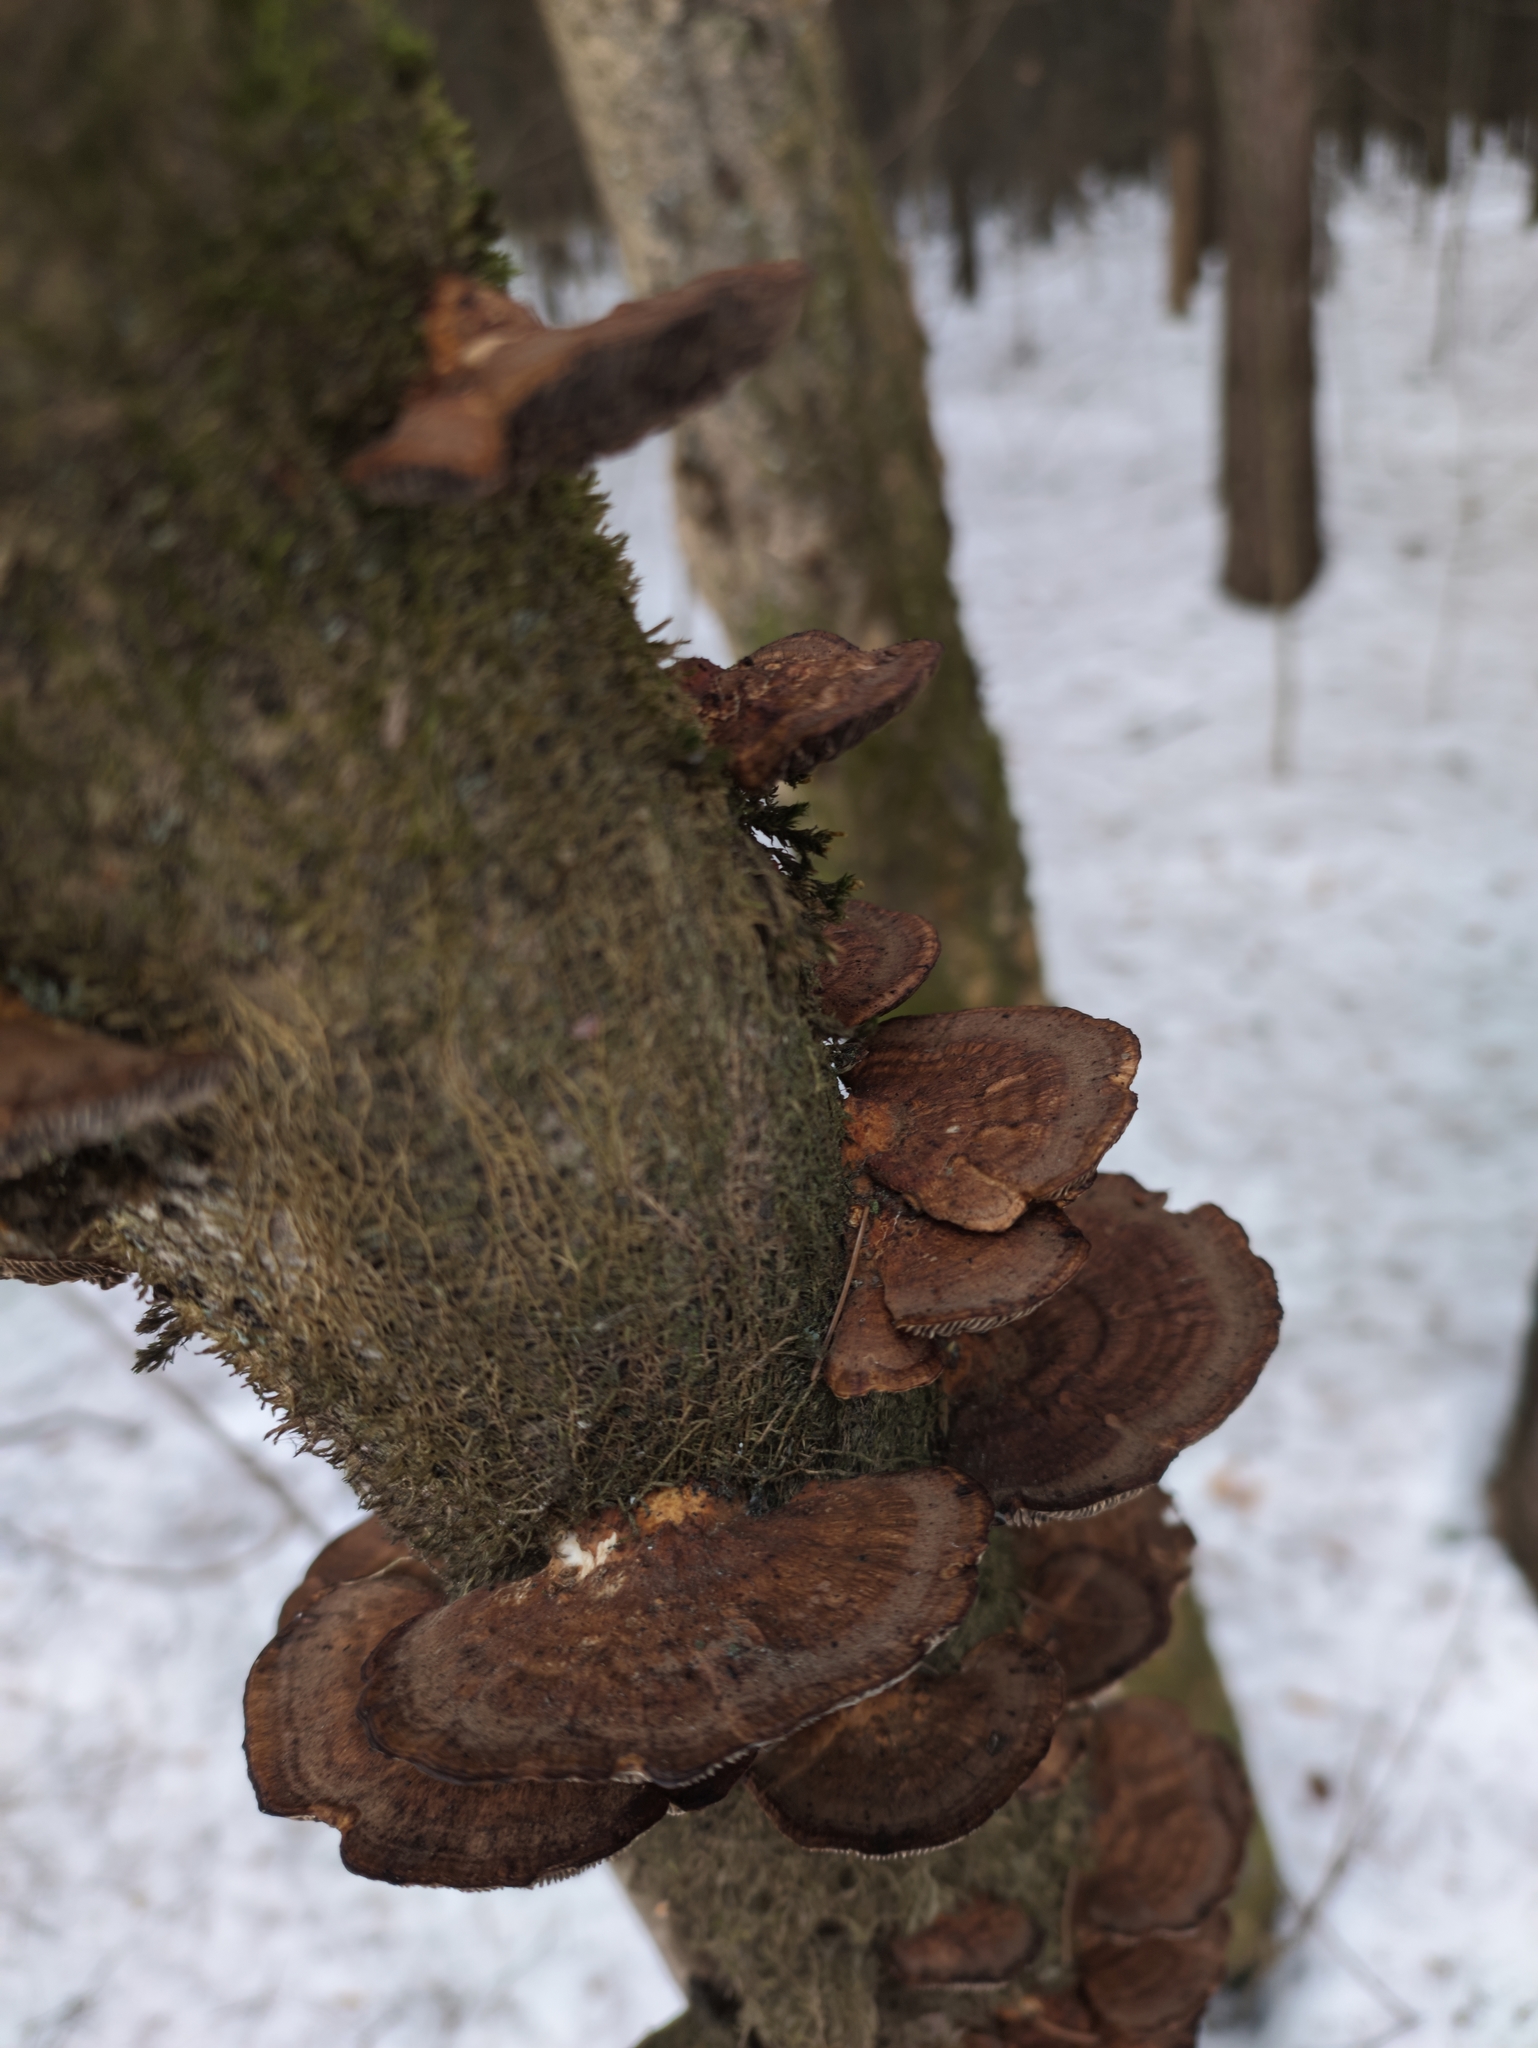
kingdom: Fungi
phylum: Basidiomycota
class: Agaricomycetes
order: Polyporales
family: Polyporaceae
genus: Daedaleopsis
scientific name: Daedaleopsis tricolor
